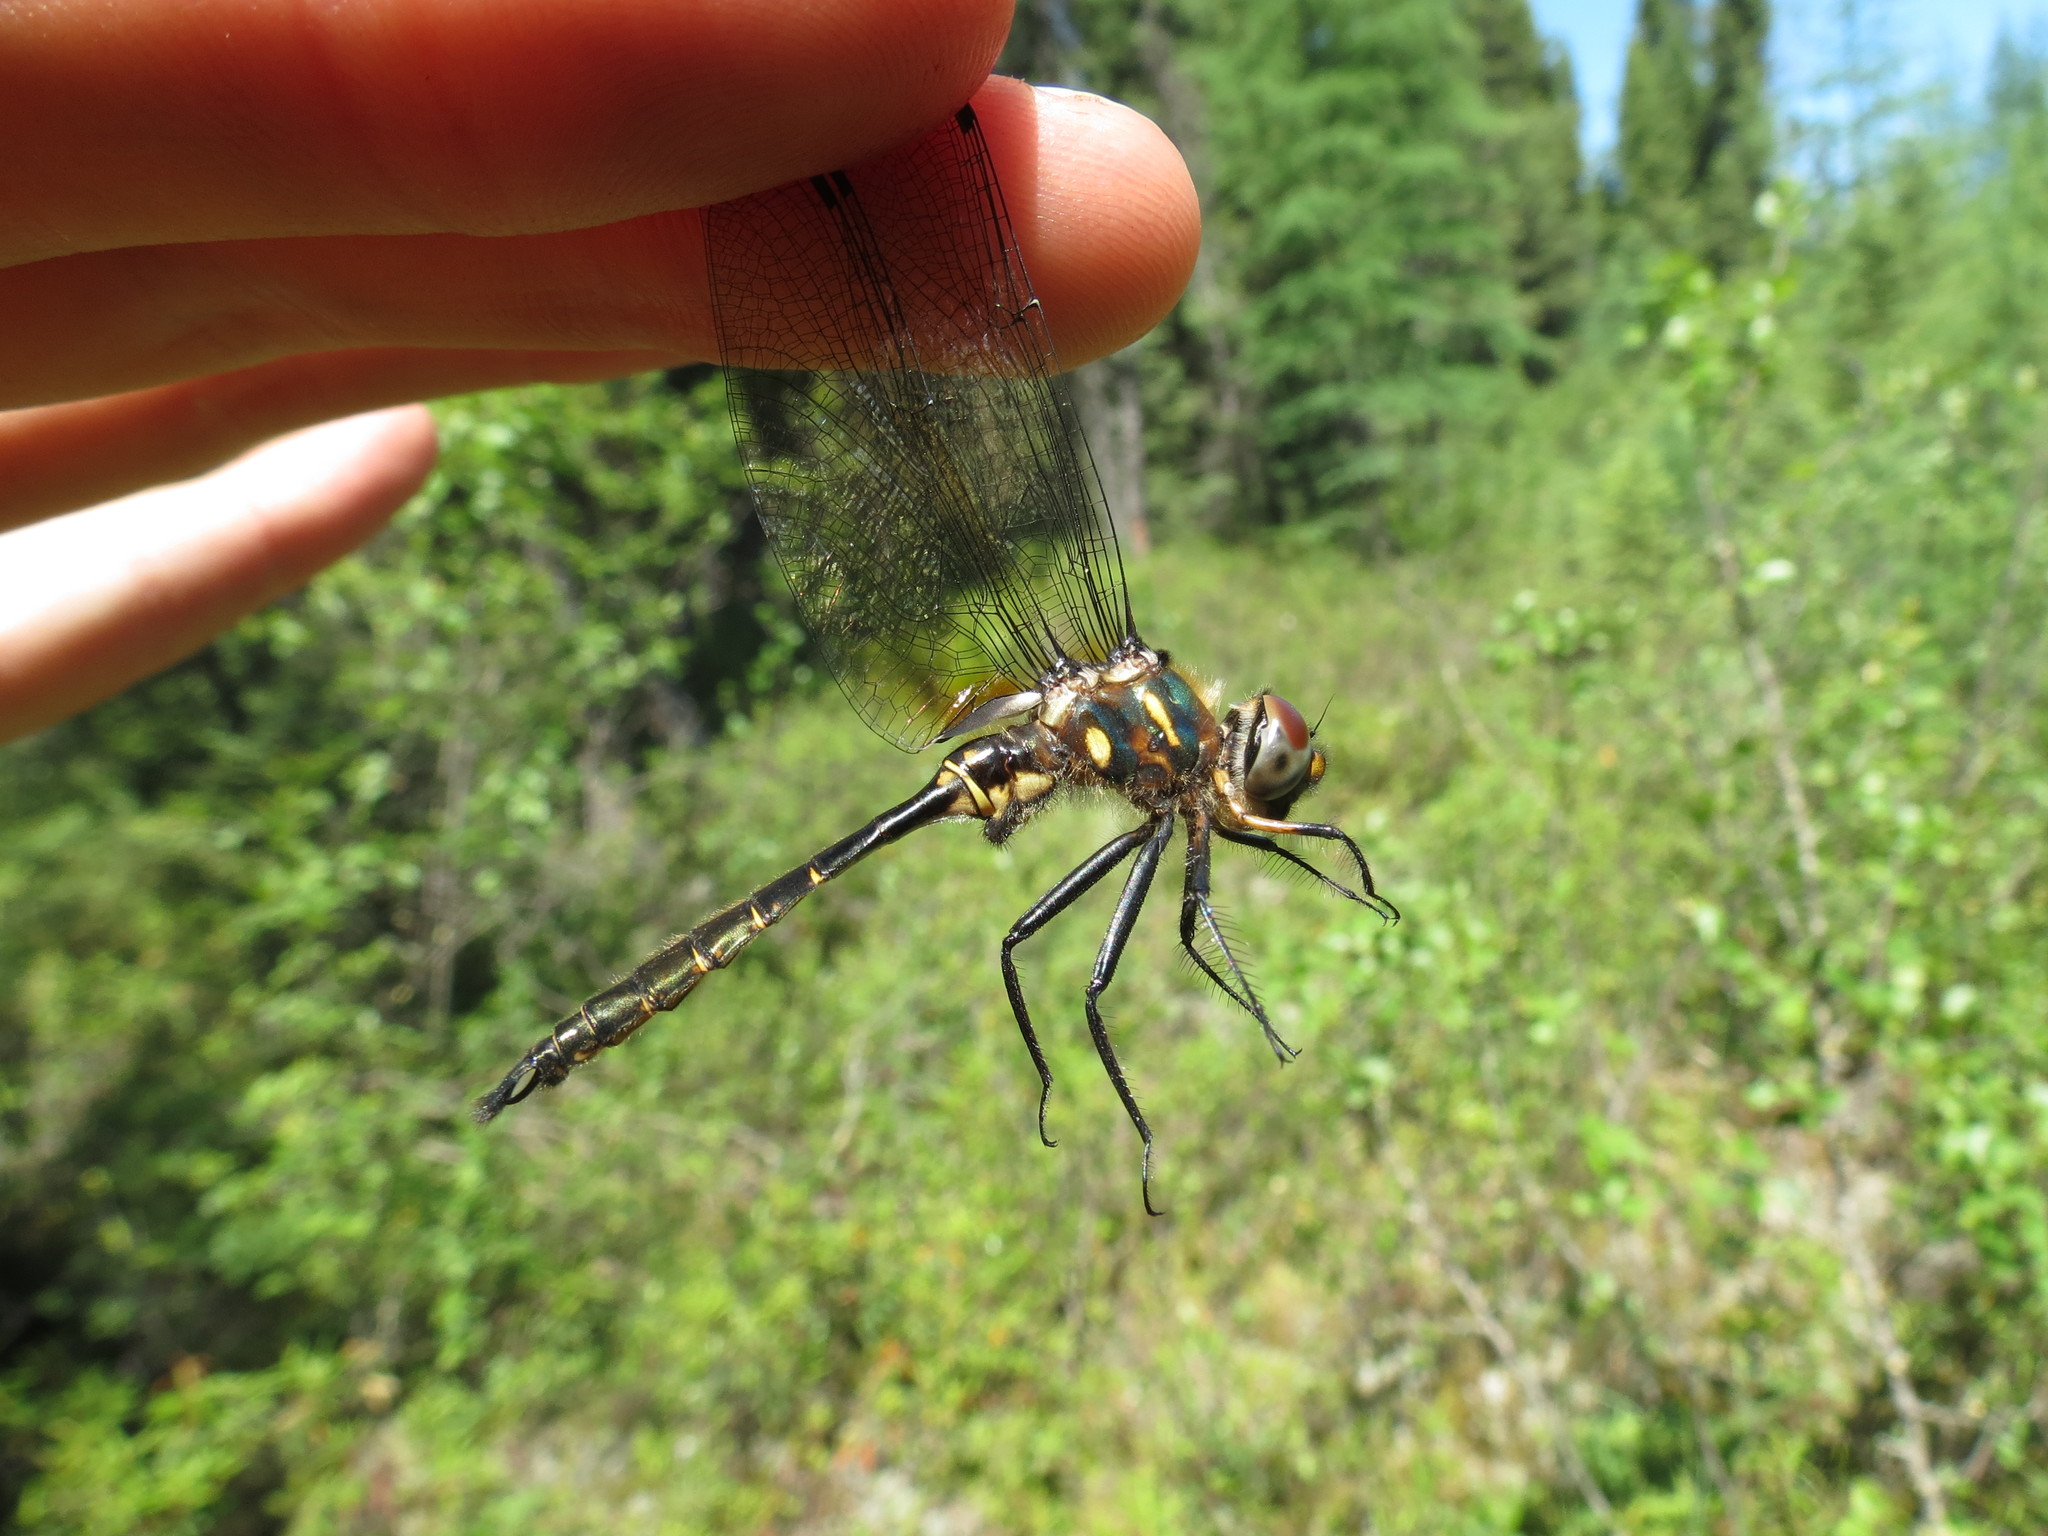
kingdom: Animalia
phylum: Arthropoda
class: Insecta
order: Odonata
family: Corduliidae
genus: Somatochlora
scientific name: Somatochlora walshii
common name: Brush-tipped emerald
